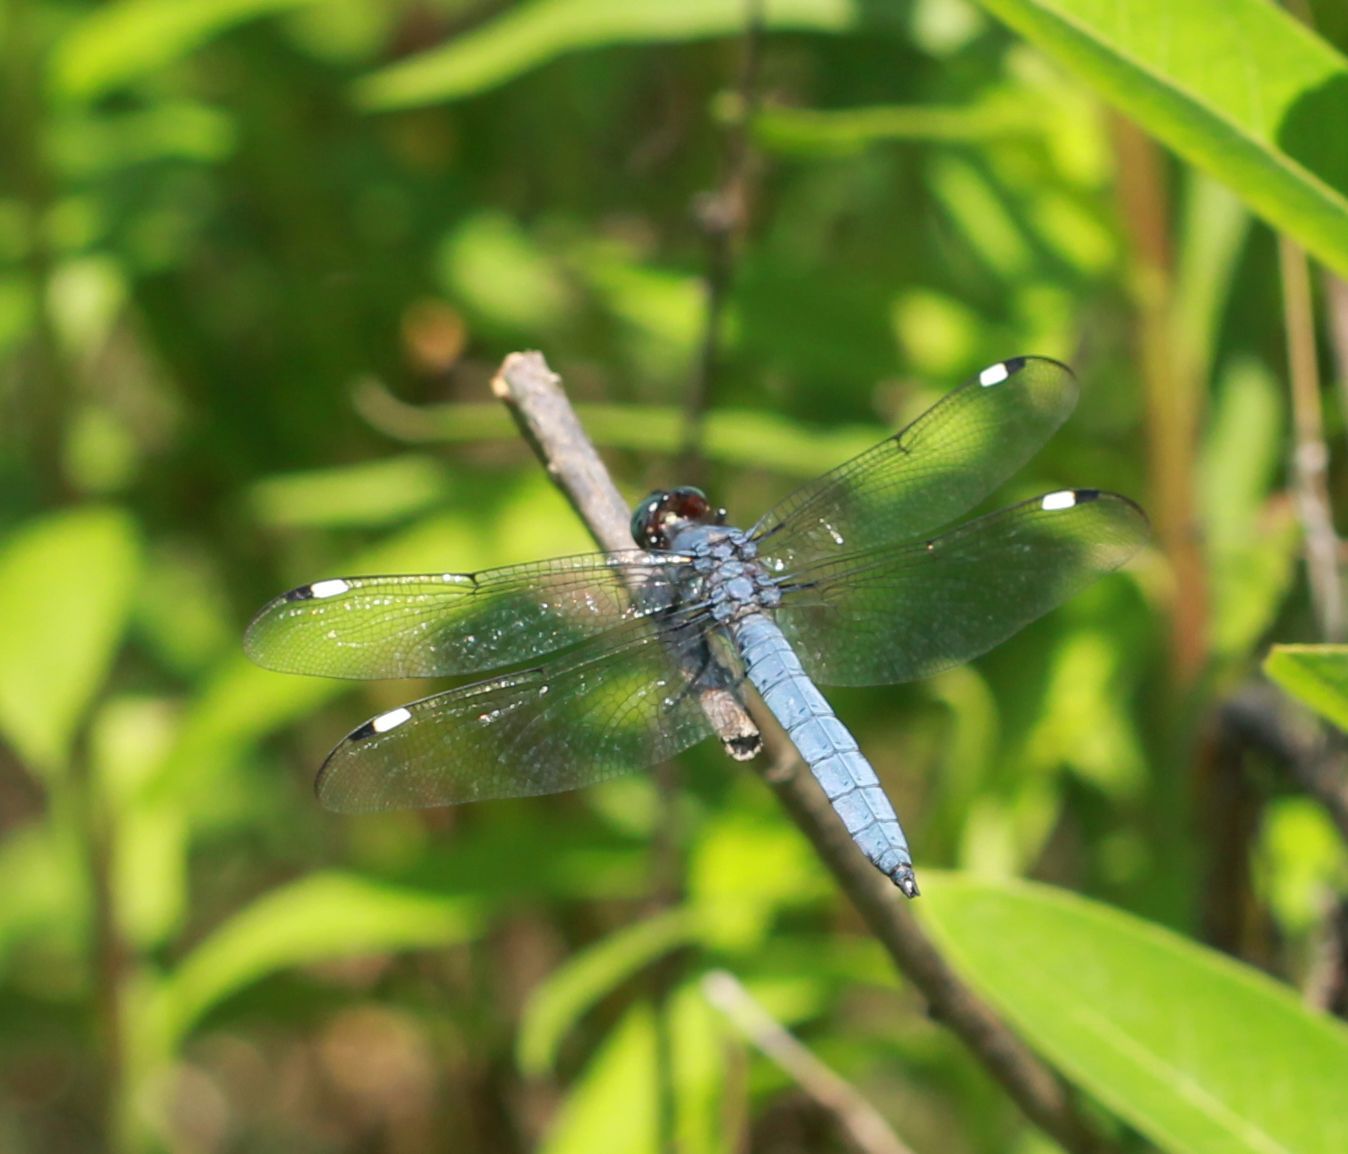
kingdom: Animalia
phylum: Arthropoda
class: Insecta
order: Odonata
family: Libellulidae
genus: Libellula
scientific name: Libellula cyanea
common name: Spangled skimmer
